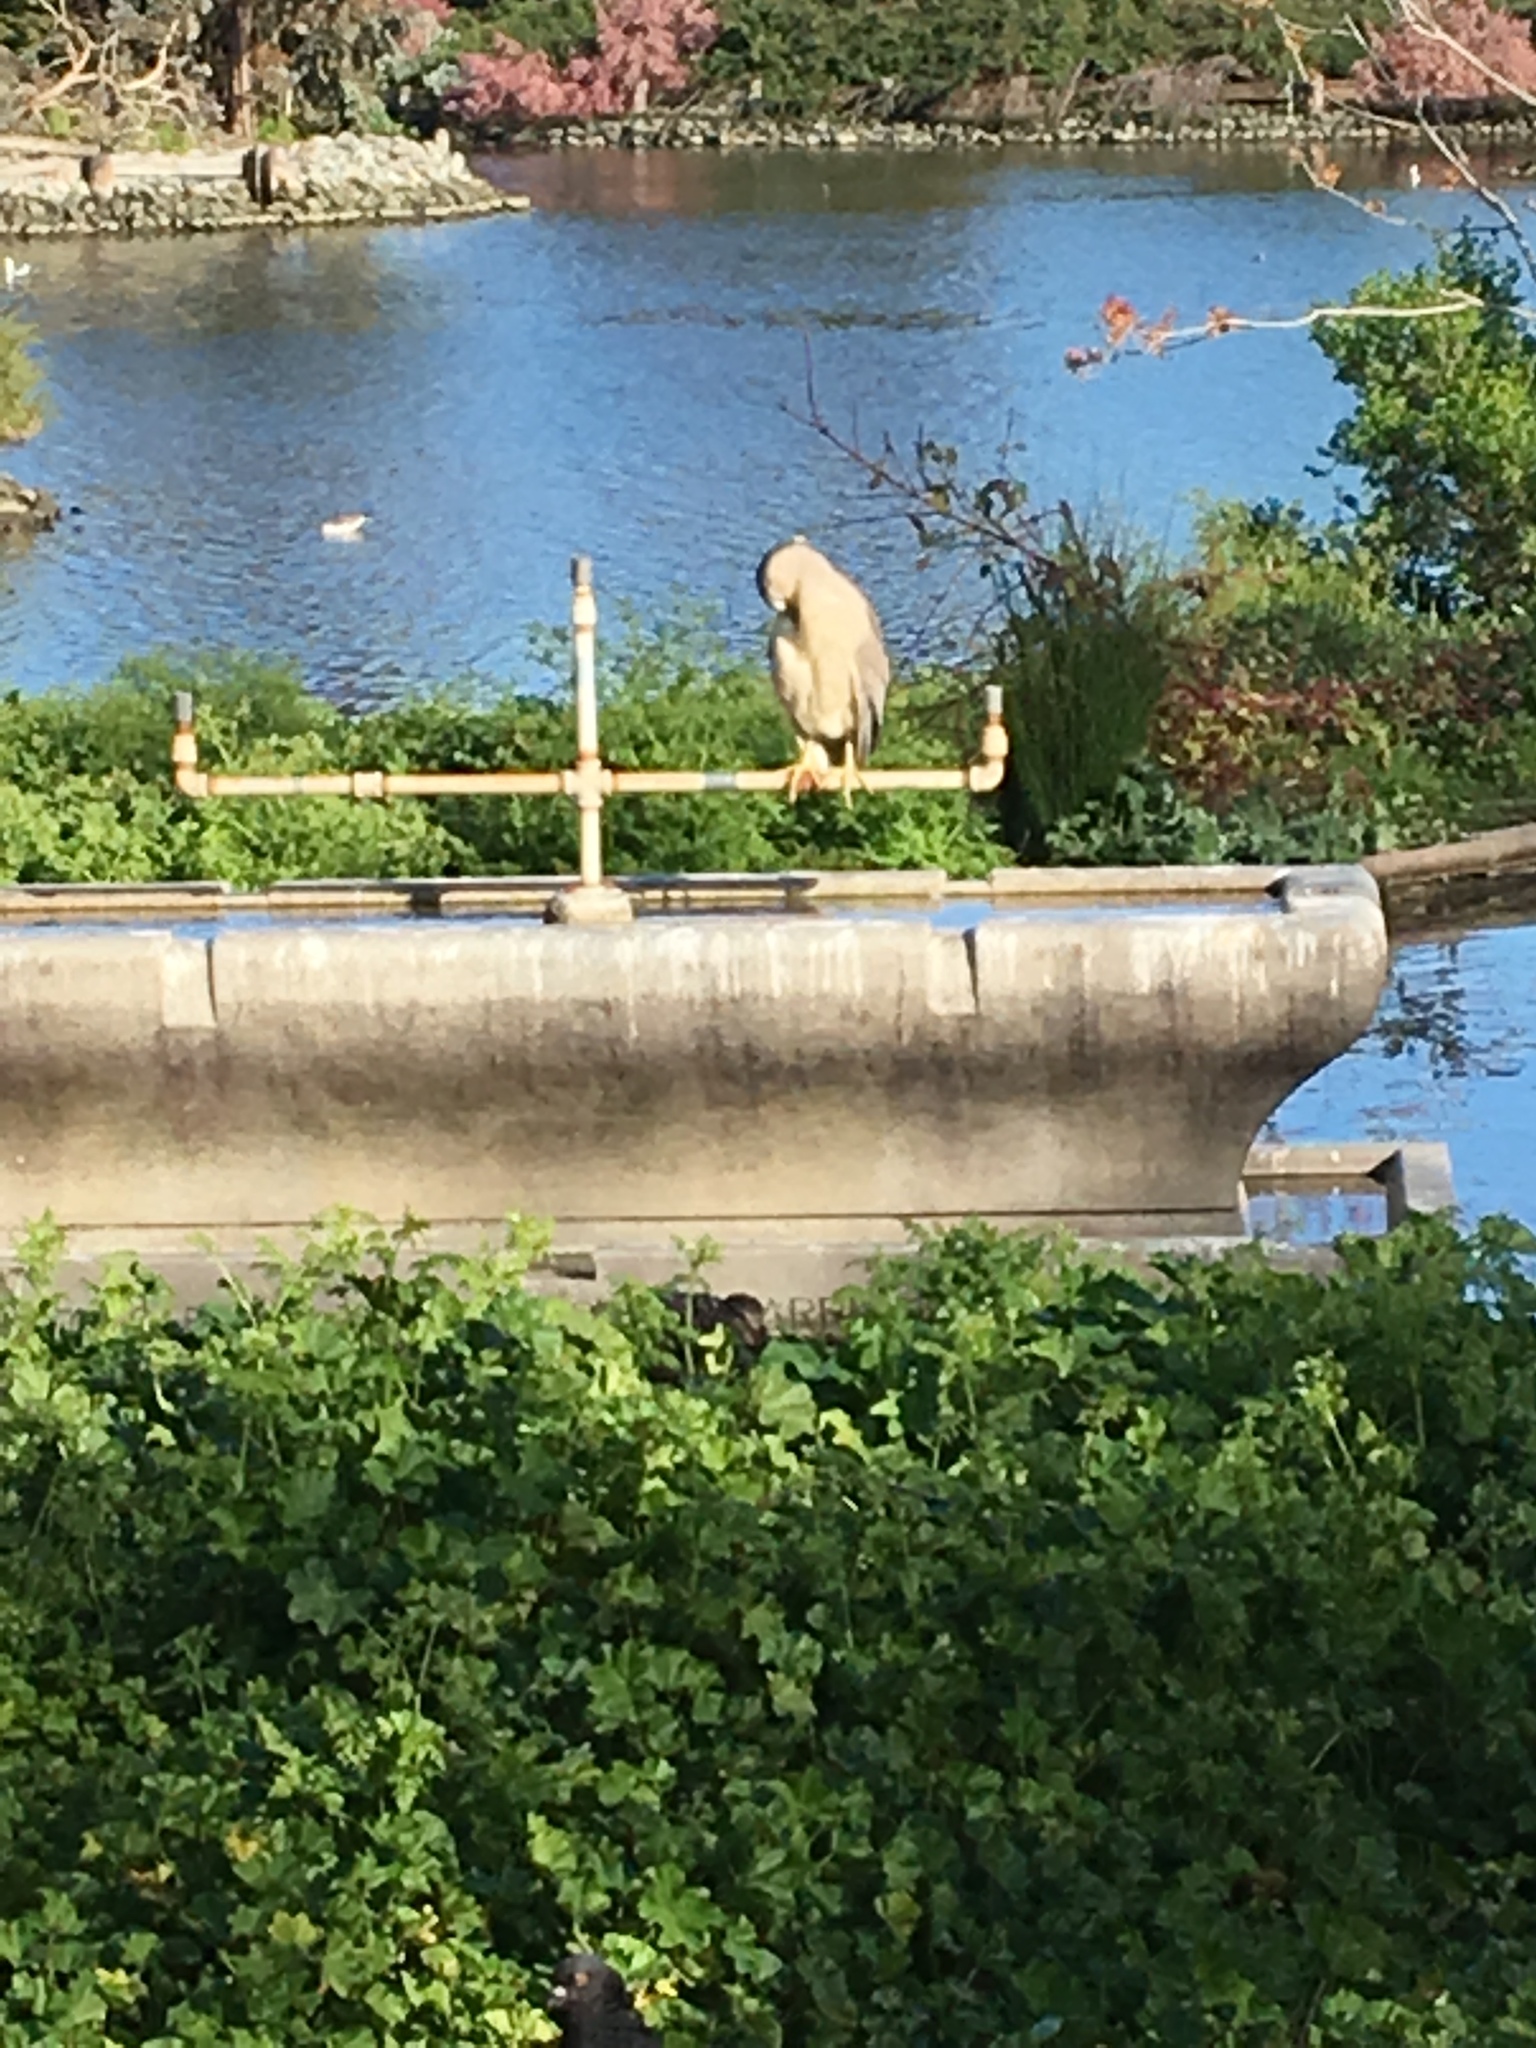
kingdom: Animalia
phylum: Chordata
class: Aves
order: Pelecaniformes
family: Ardeidae
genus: Nycticorax
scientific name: Nycticorax nycticorax
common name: Black-crowned night heron
